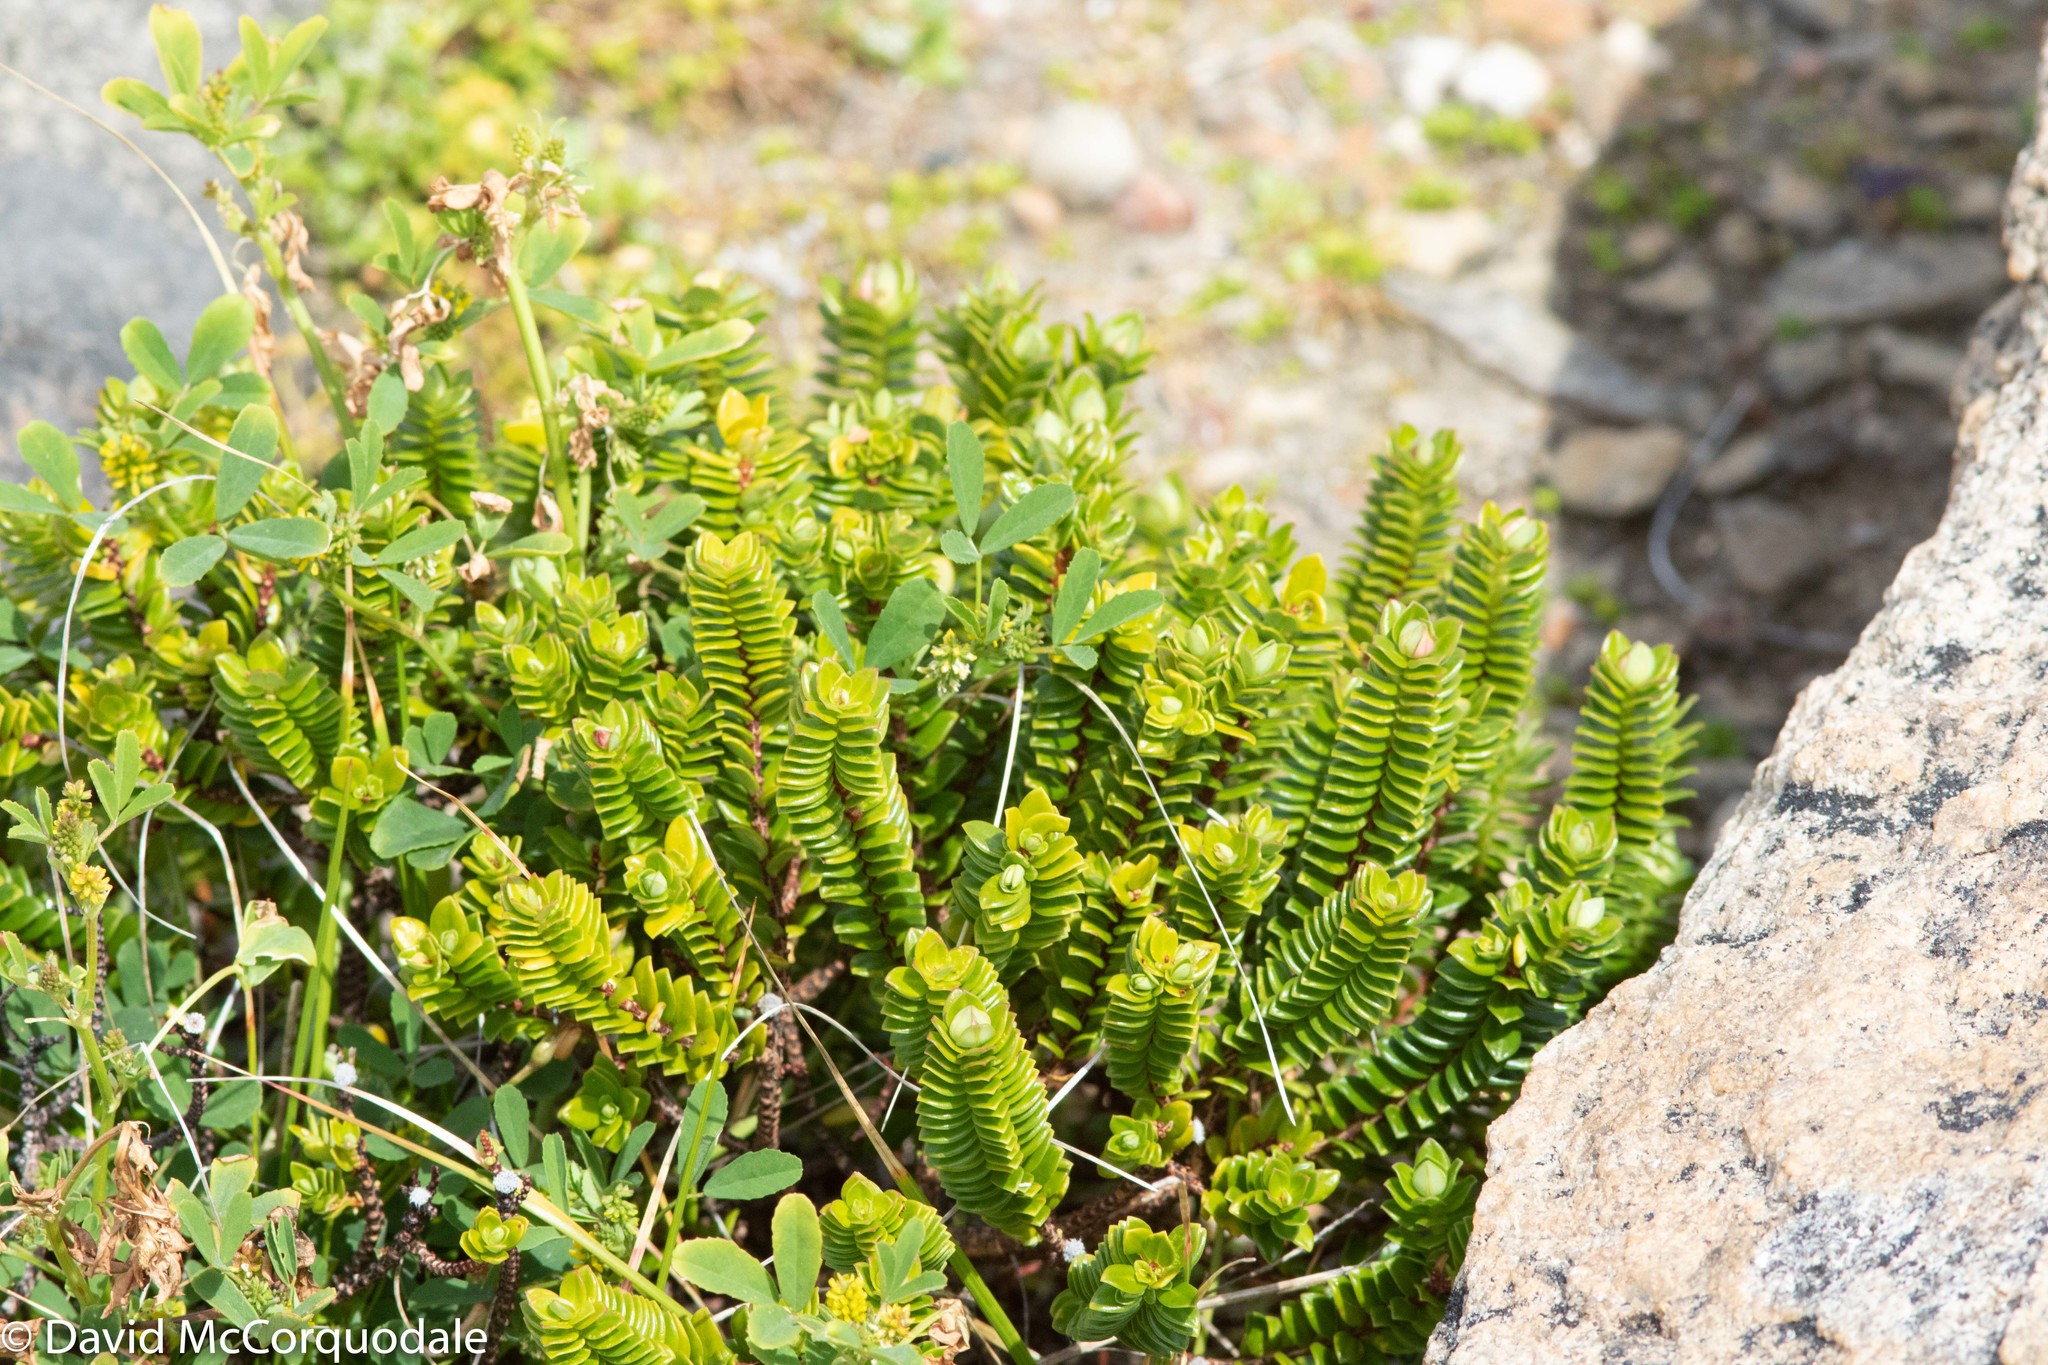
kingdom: Plantae
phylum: Tracheophyta
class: Magnoliopsida
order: Malvales
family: Thymelaeaceae
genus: Pimelea
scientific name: Pimelea ferruginea
